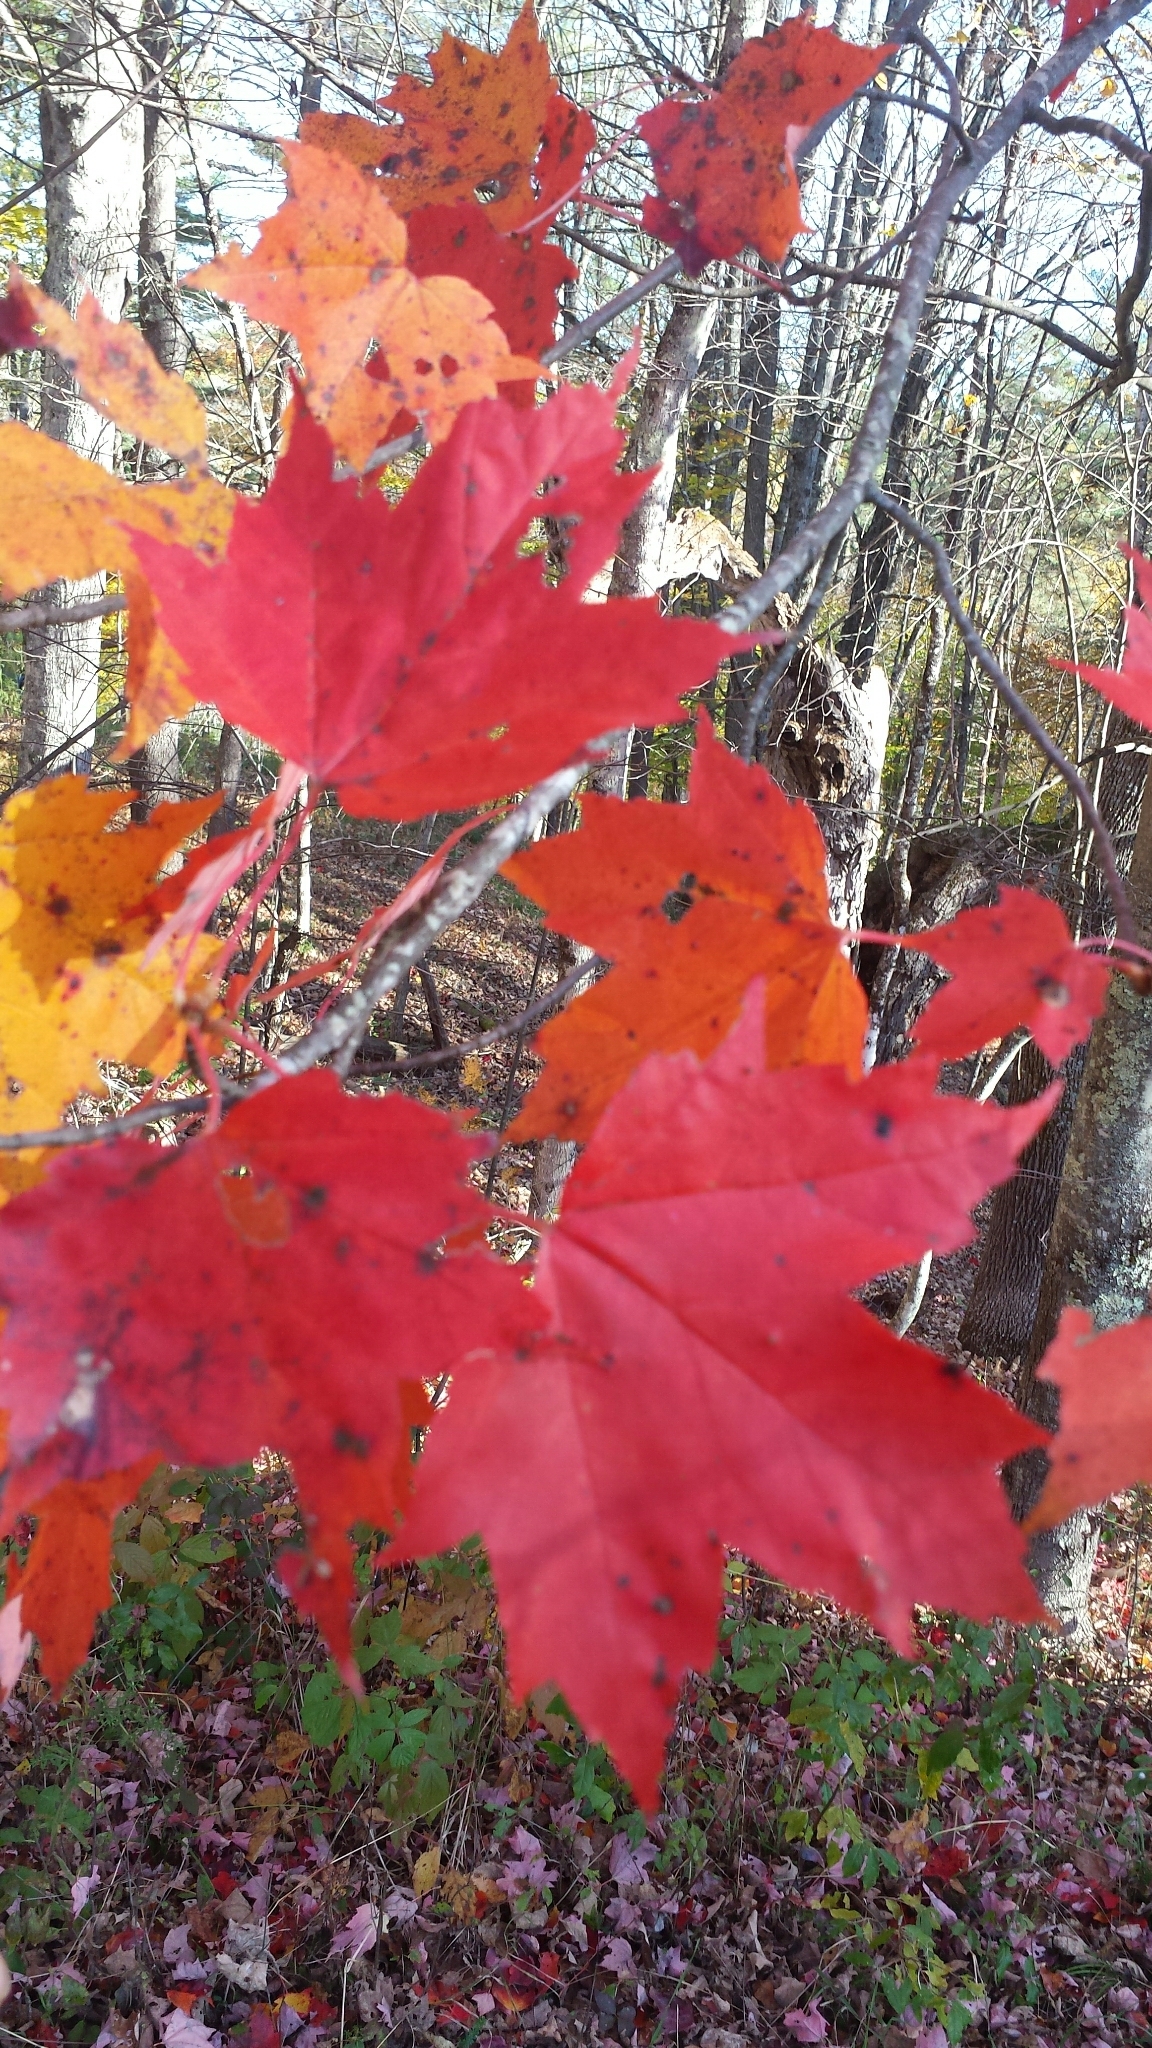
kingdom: Plantae
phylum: Tracheophyta
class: Magnoliopsida
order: Sapindales
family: Sapindaceae
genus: Acer
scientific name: Acer rubrum
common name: Red maple
